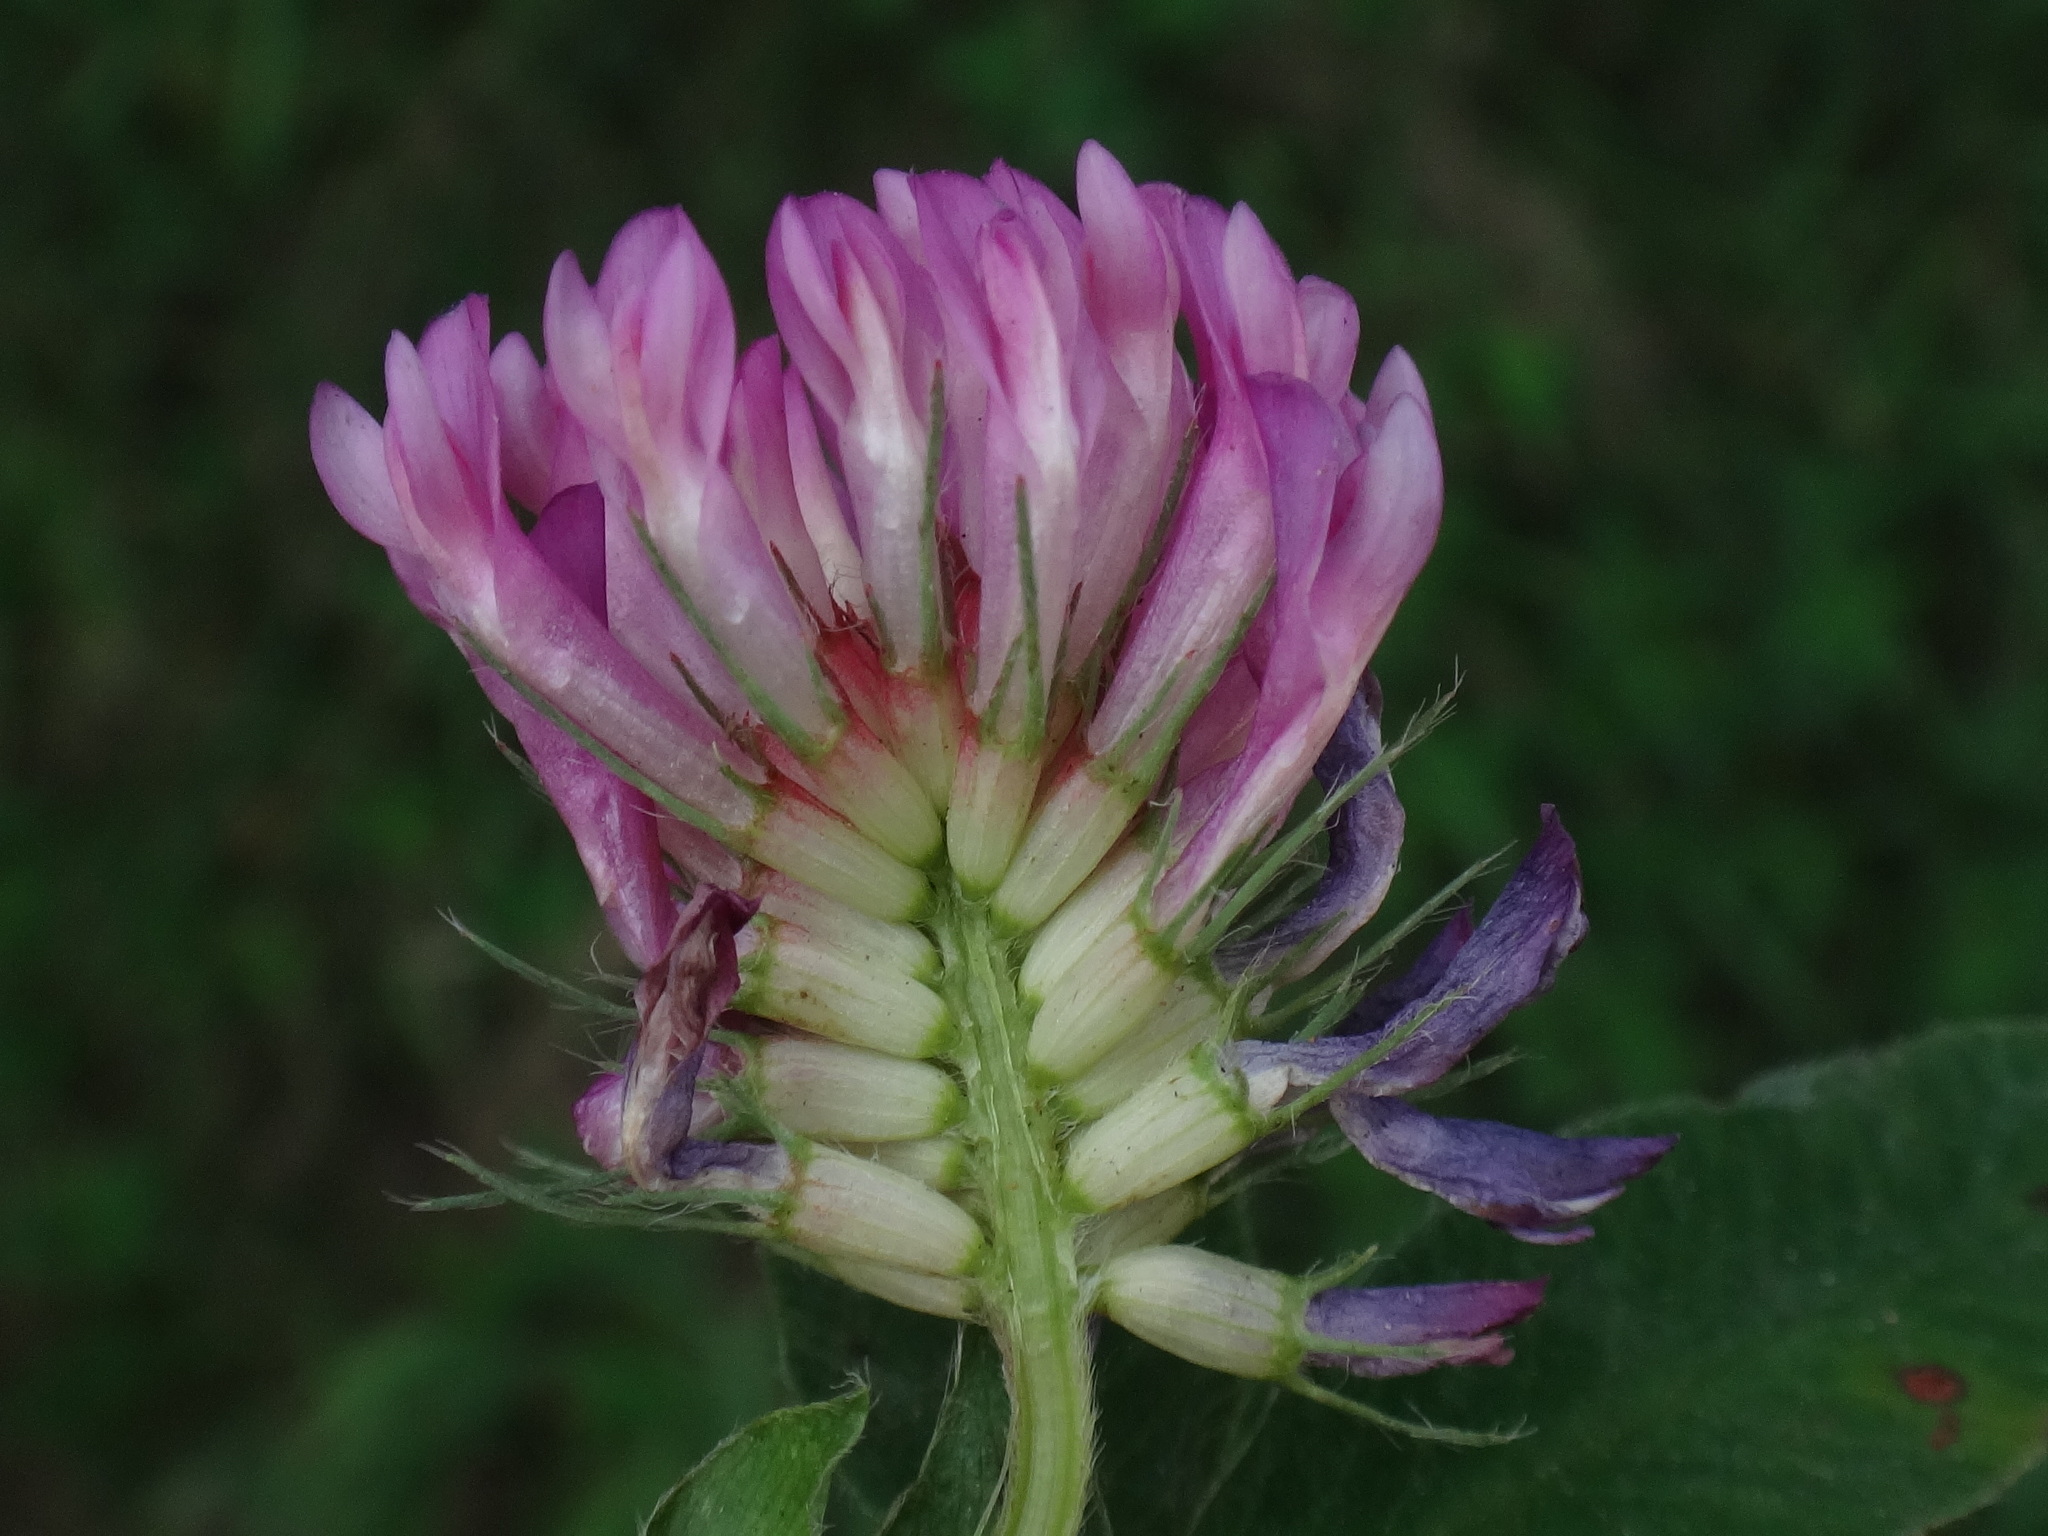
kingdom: Plantae
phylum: Tracheophyta
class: Magnoliopsida
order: Fabales
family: Fabaceae
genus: Trifolium
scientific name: Trifolium medium
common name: Zigzag clover
